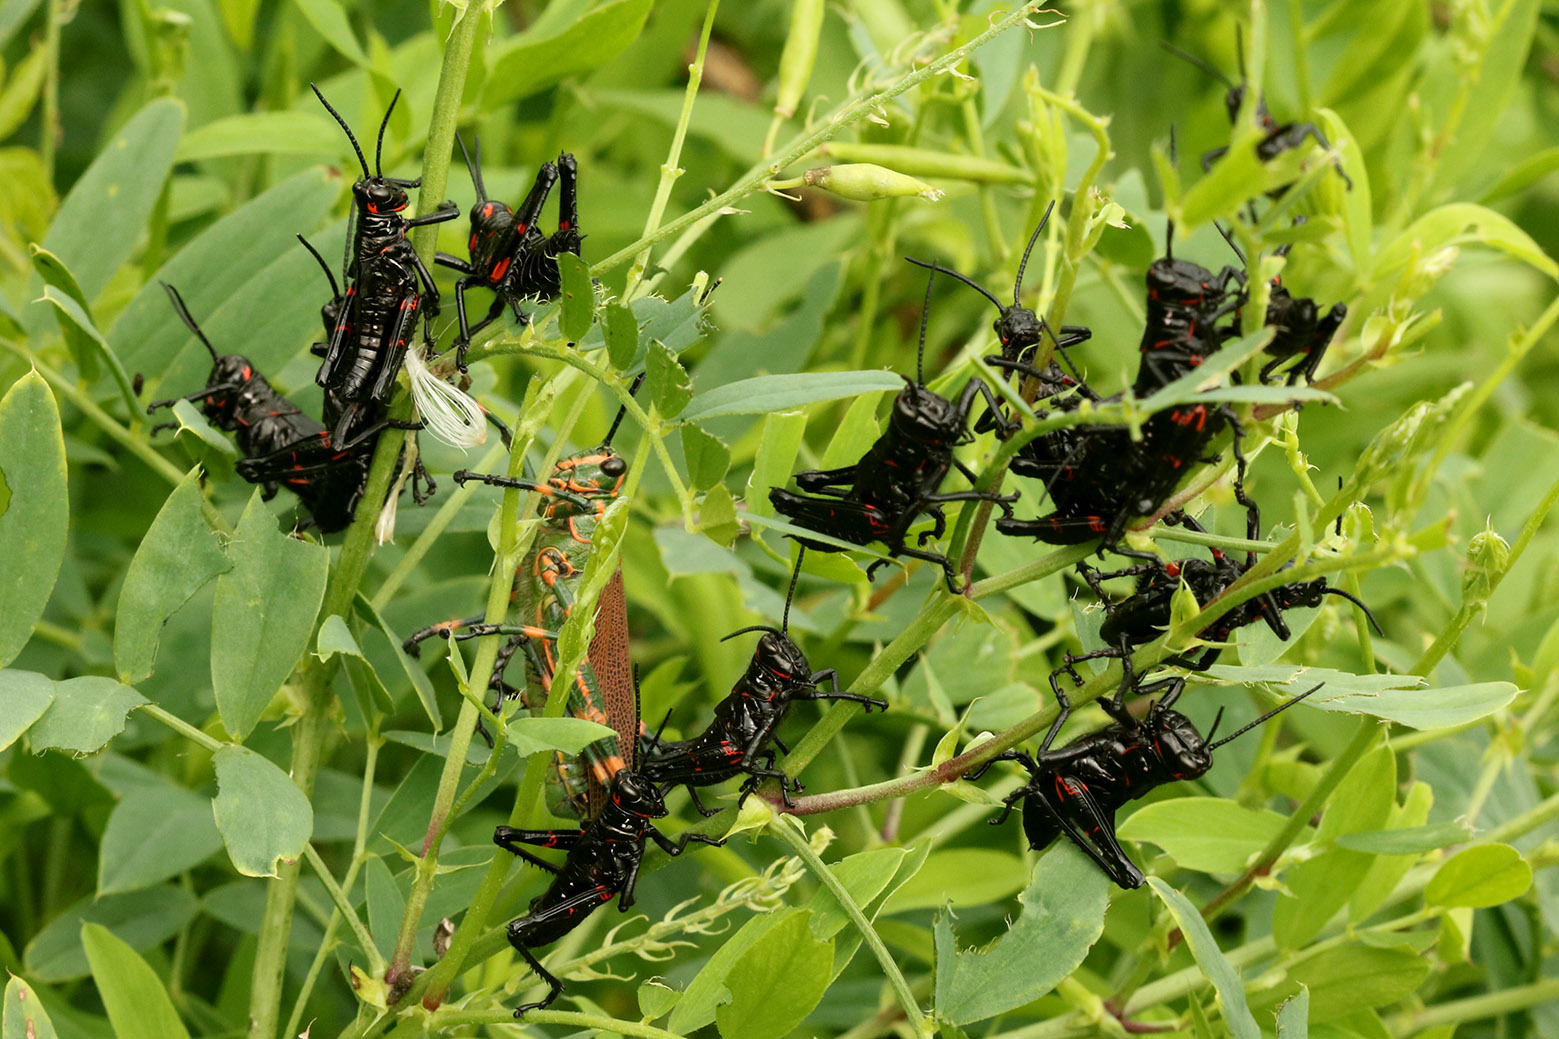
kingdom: Animalia
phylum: Arthropoda
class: Insecta
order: Orthoptera
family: Romaleidae
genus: Chromacris
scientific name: Chromacris speciosa
